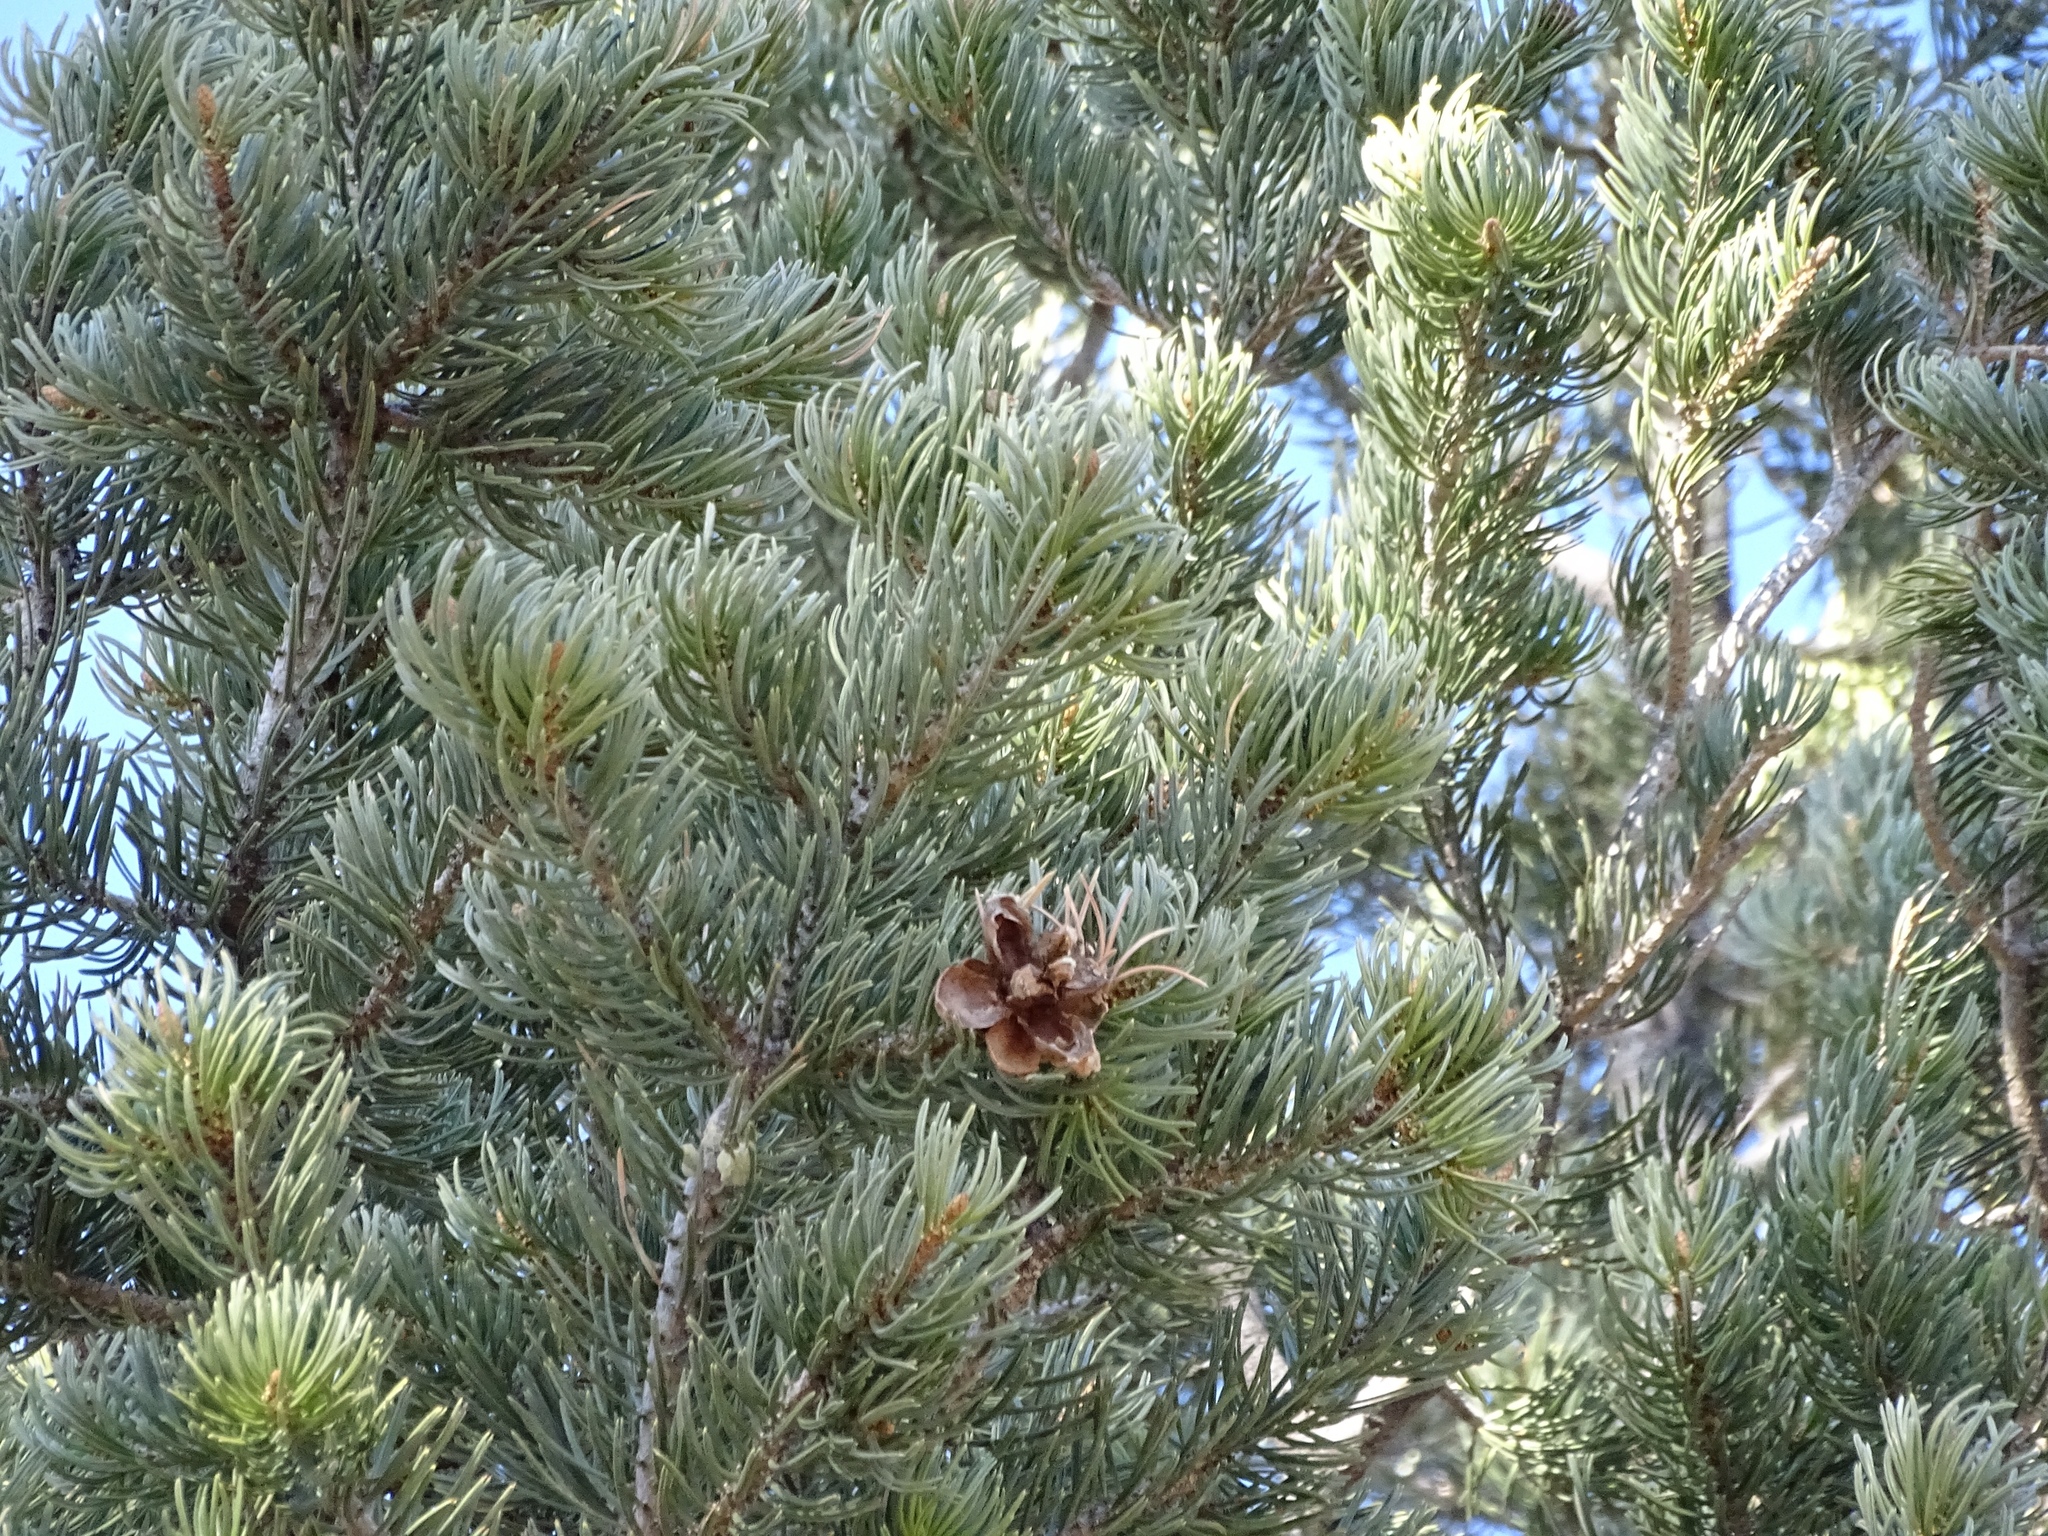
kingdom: Plantae
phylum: Tracheophyta
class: Pinopsida
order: Pinales
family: Pinaceae
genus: Pinus
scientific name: Pinus edulis
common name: Colorado pinyon
